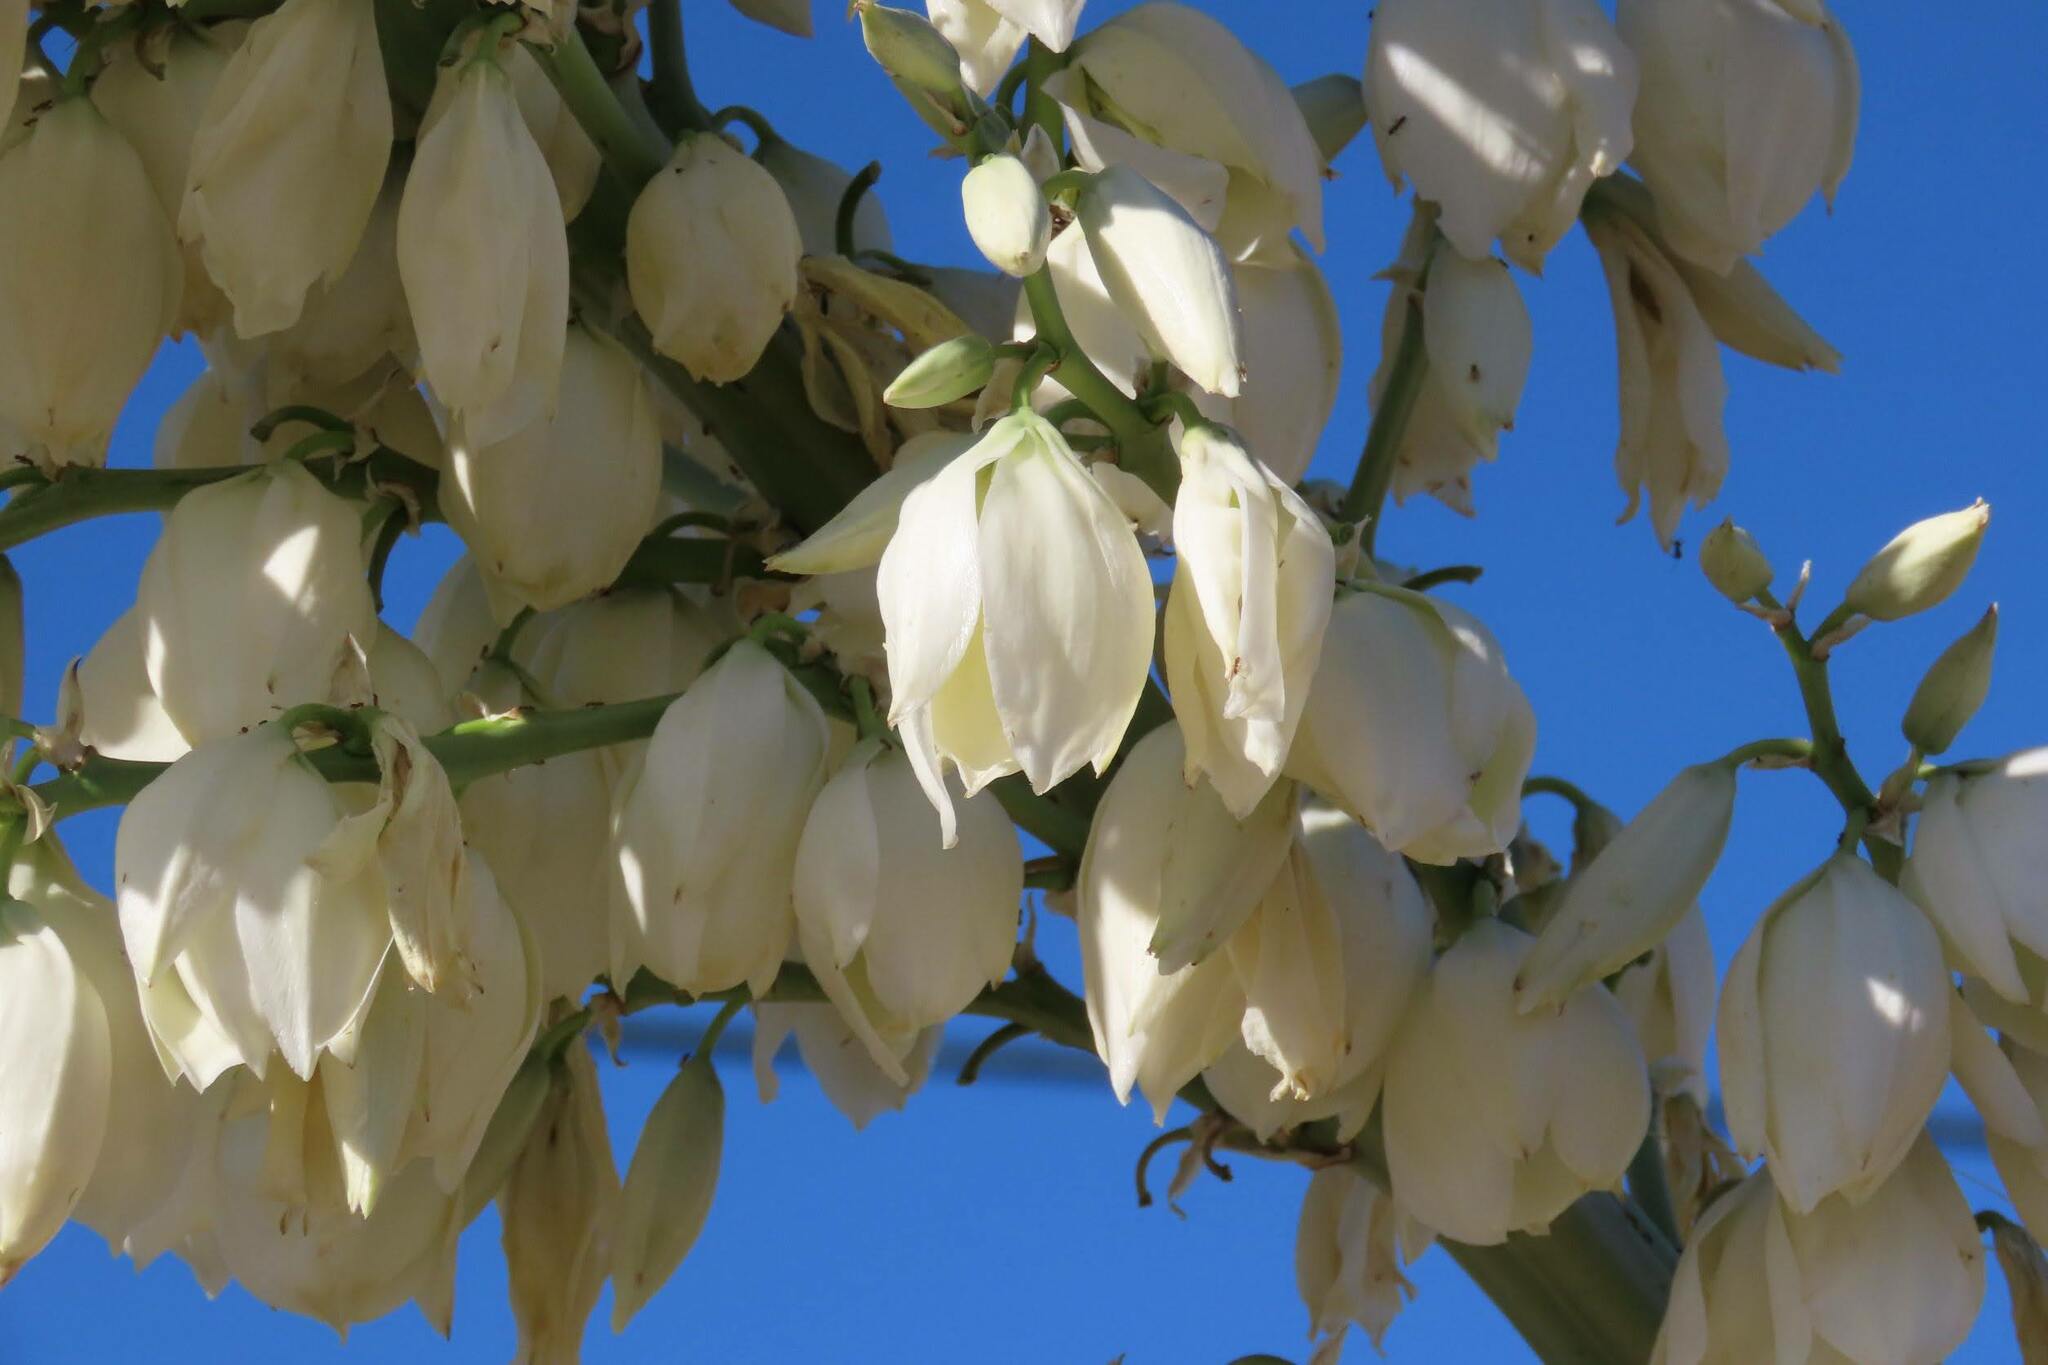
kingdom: Plantae
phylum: Tracheophyta
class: Liliopsida
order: Asparagales
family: Asparagaceae
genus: Yucca
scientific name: Yucca elata
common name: Palmella
